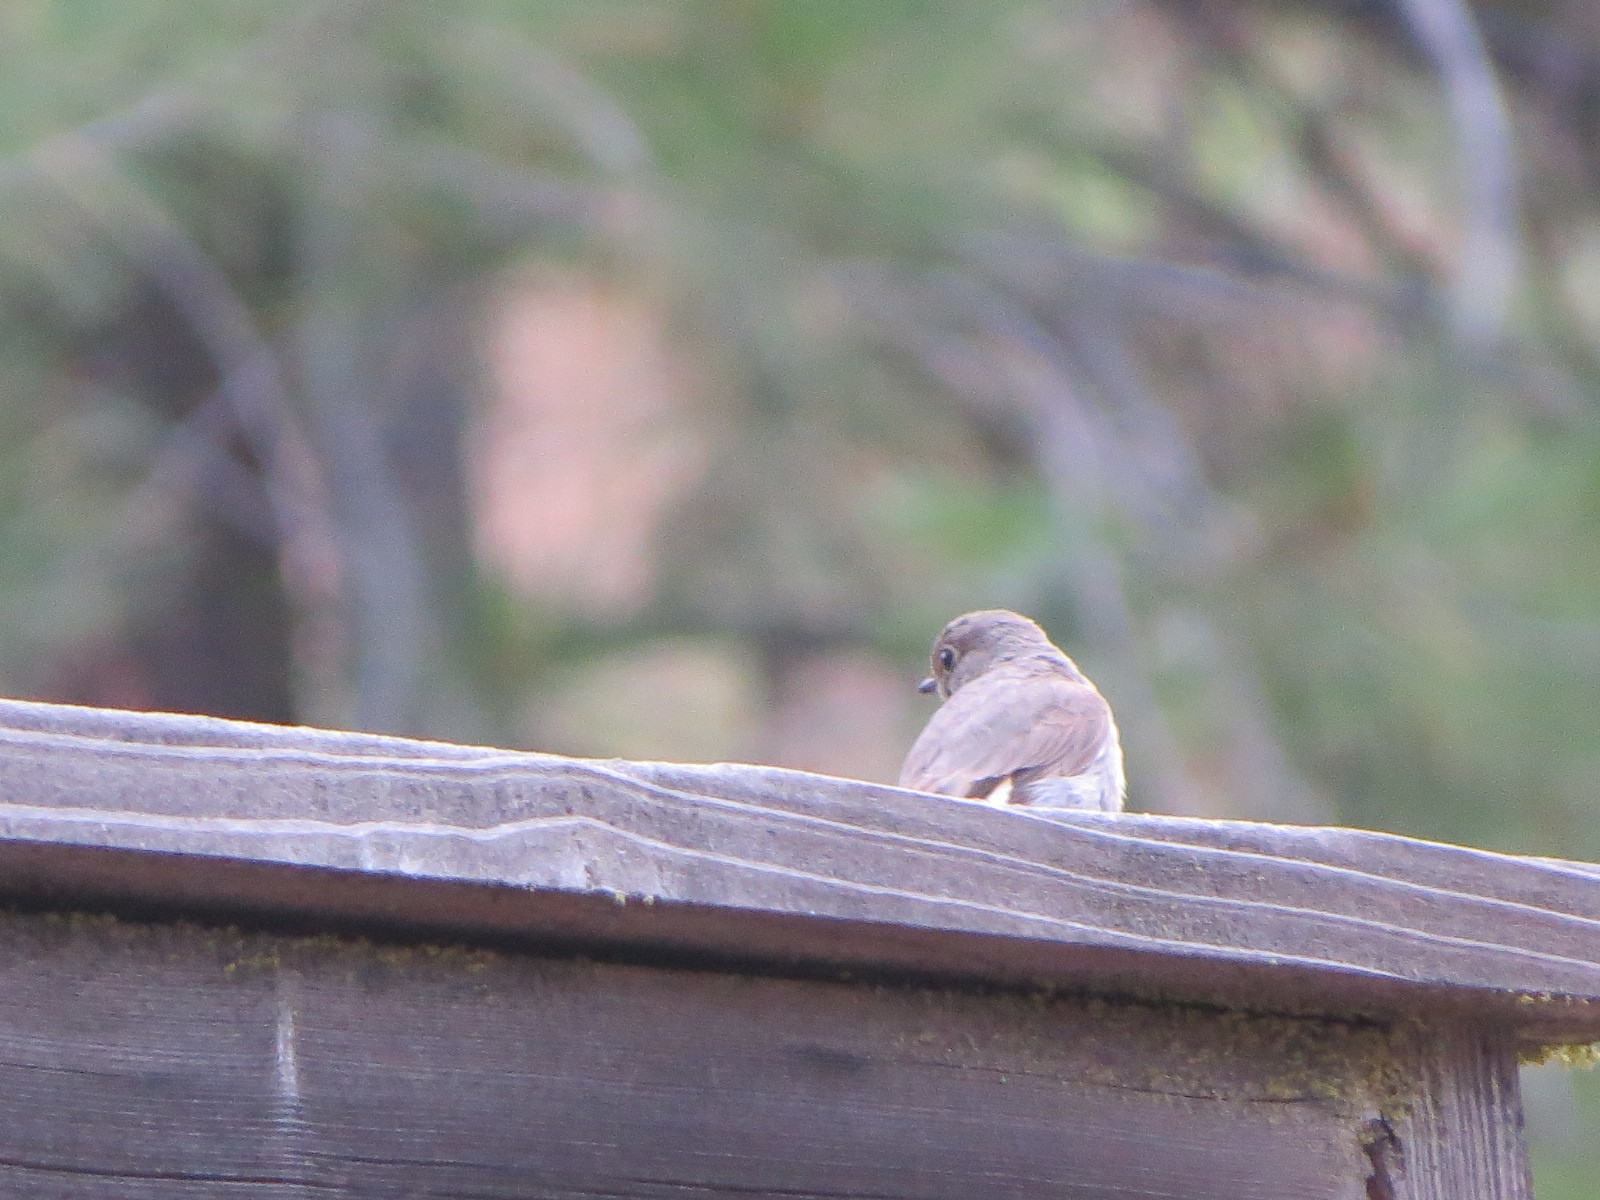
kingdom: Animalia
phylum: Chordata
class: Aves
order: Passeriformes
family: Turdidae
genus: Myadestes
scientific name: Myadestes townsendi
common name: Townsend's solitaire
